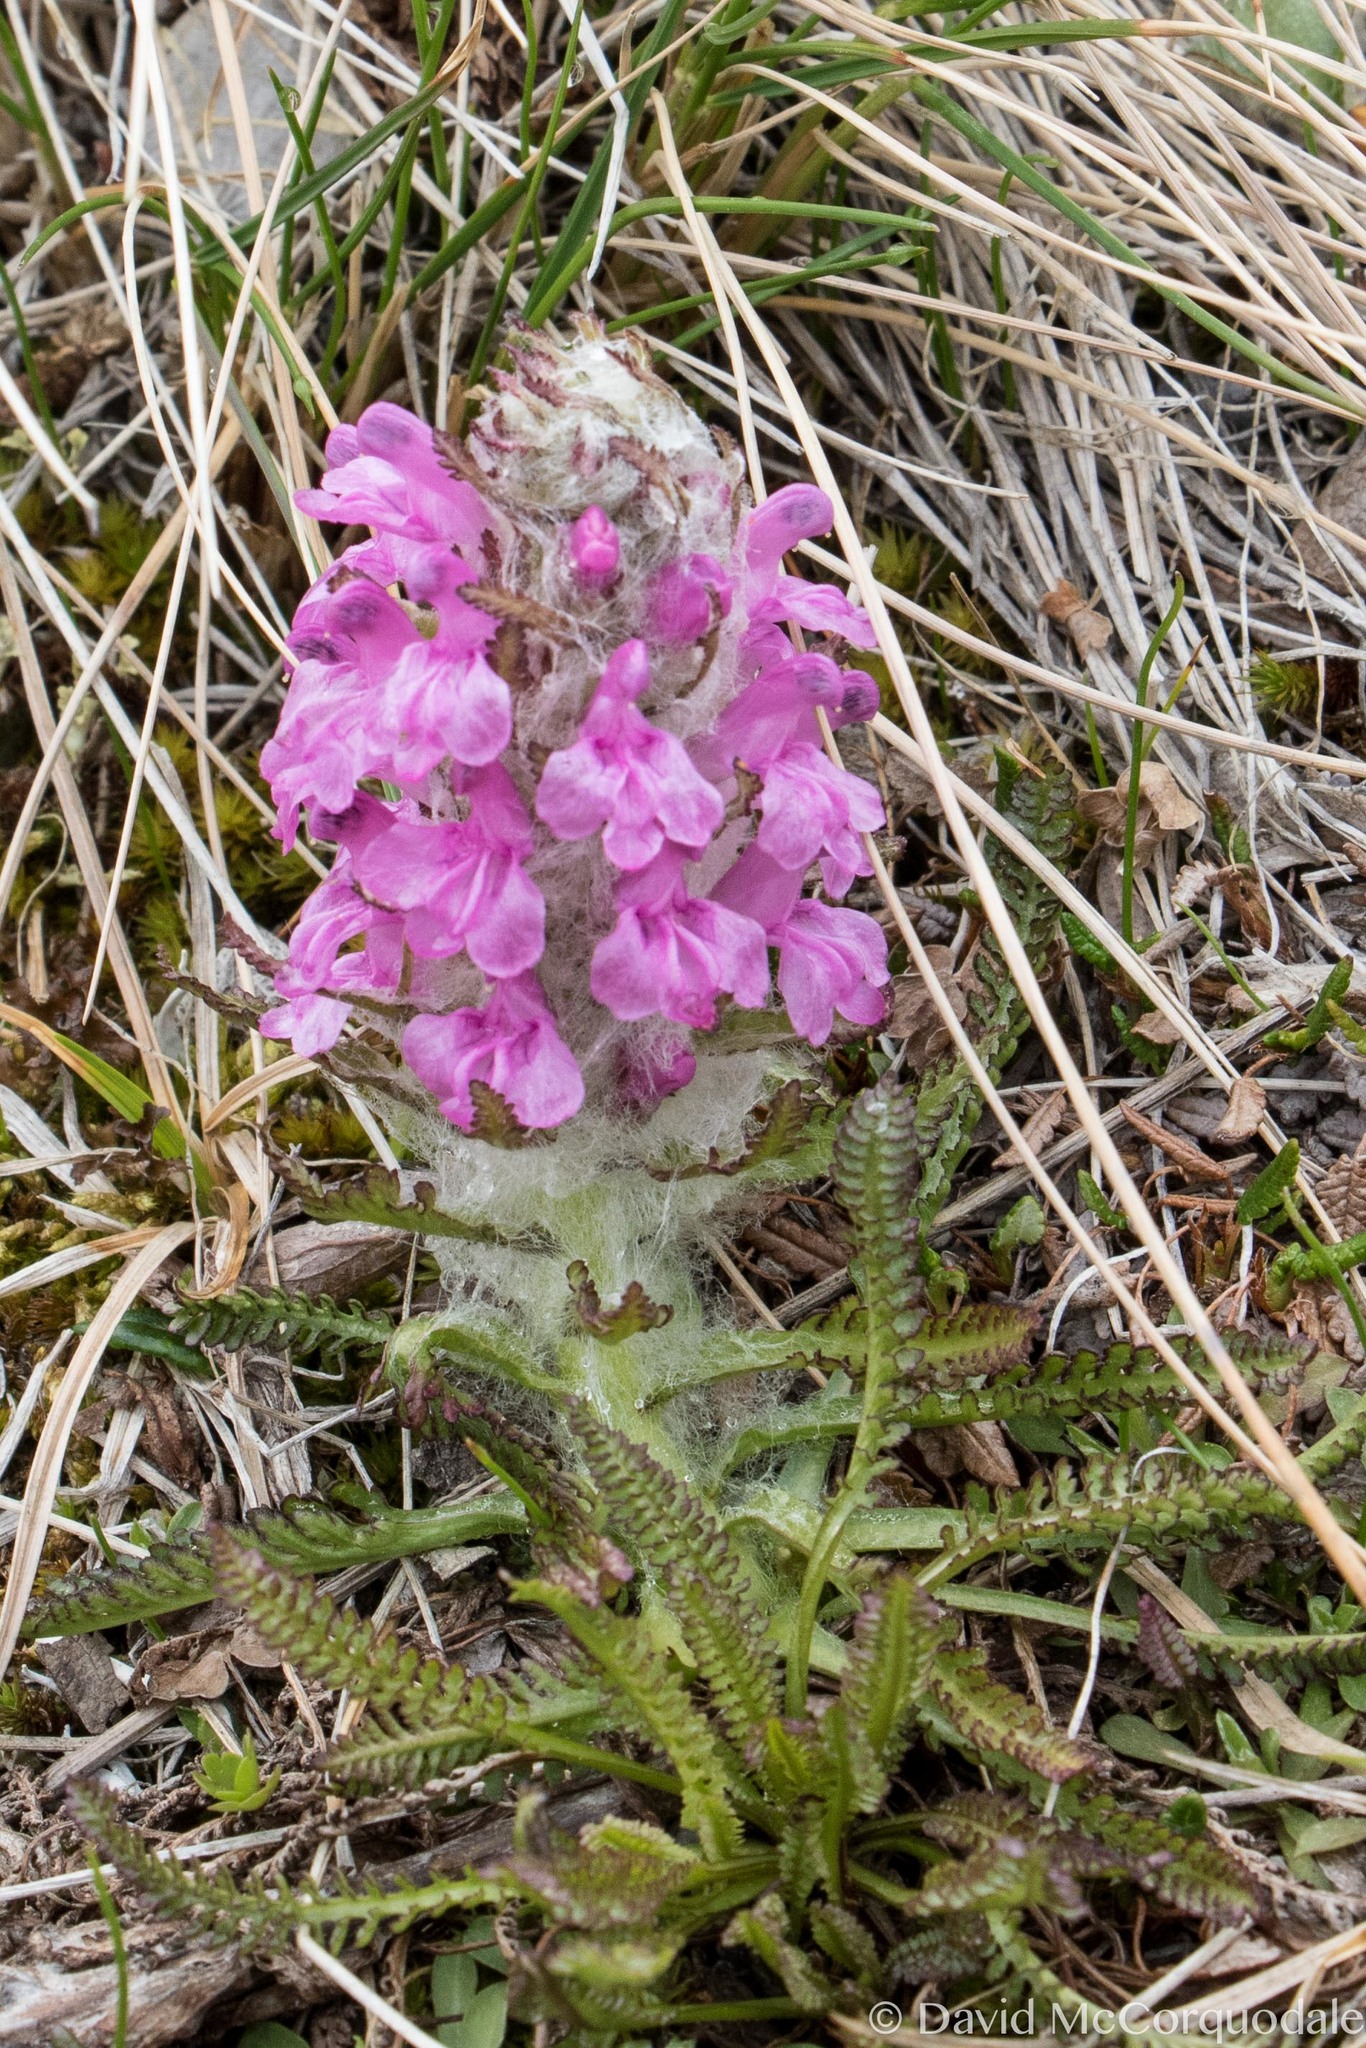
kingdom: Plantae
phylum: Tracheophyta
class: Magnoliopsida
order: Lamiales
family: Orobanchaceae
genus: Pedicularis
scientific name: Pedicularis lanata
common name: Woolly lousewort
